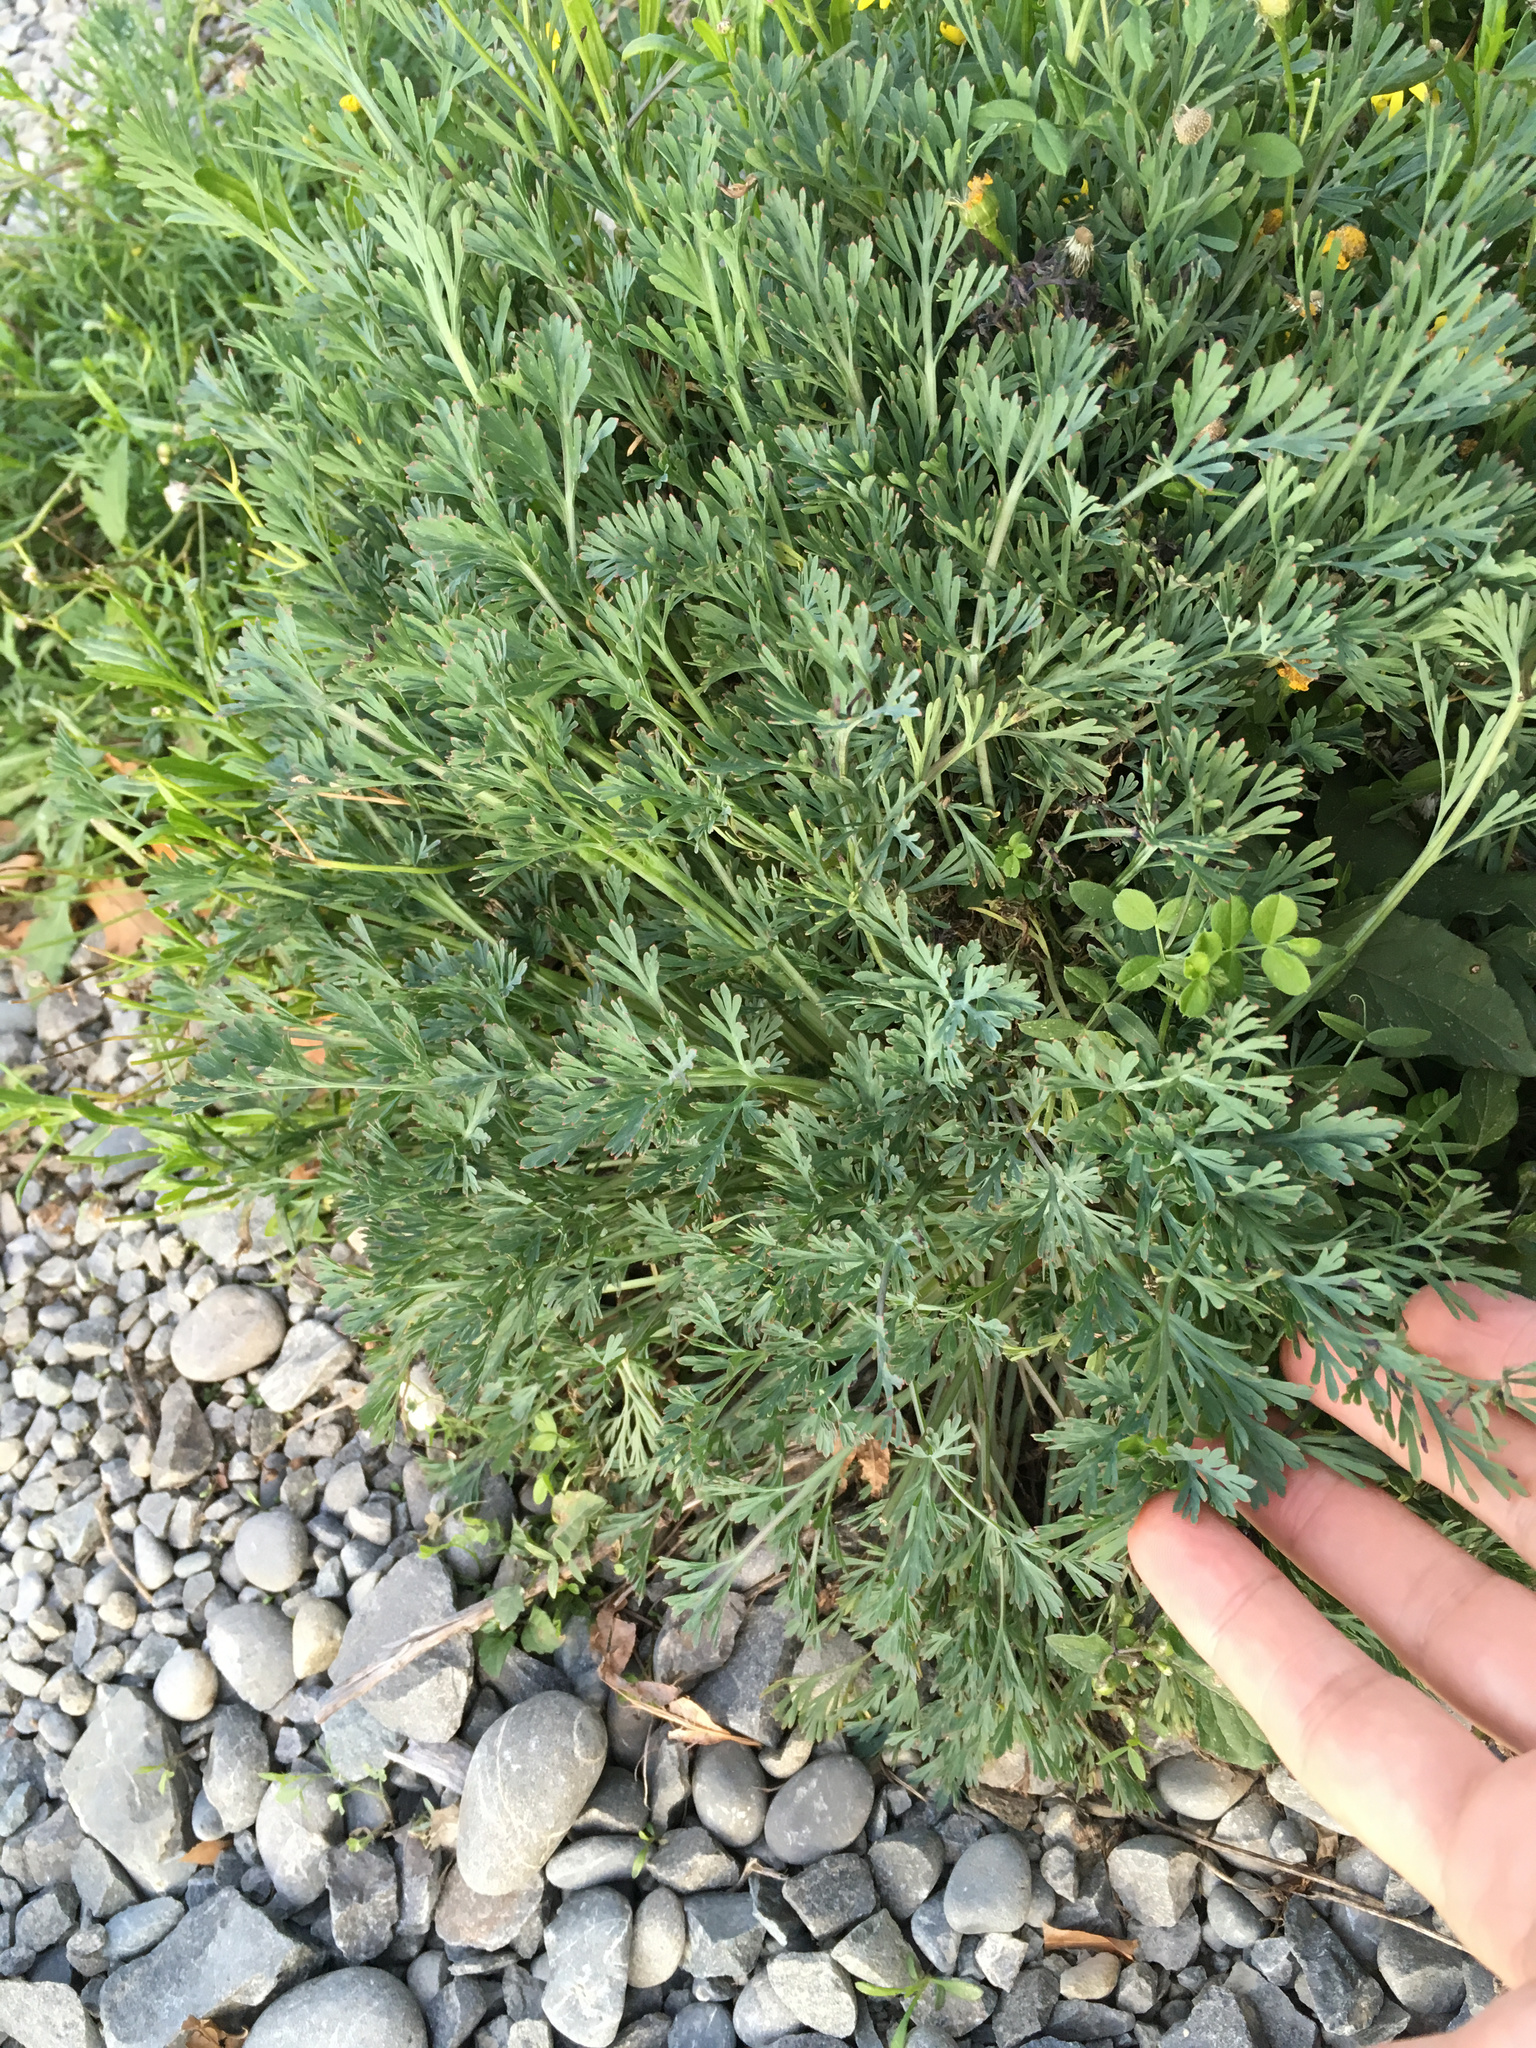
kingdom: Plantae
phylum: Tracheophyta
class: Magnoliopsida
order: Ranunculales
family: Papaveraceae
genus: Eschscholzia
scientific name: Eschscholzia californica
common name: California poppy
